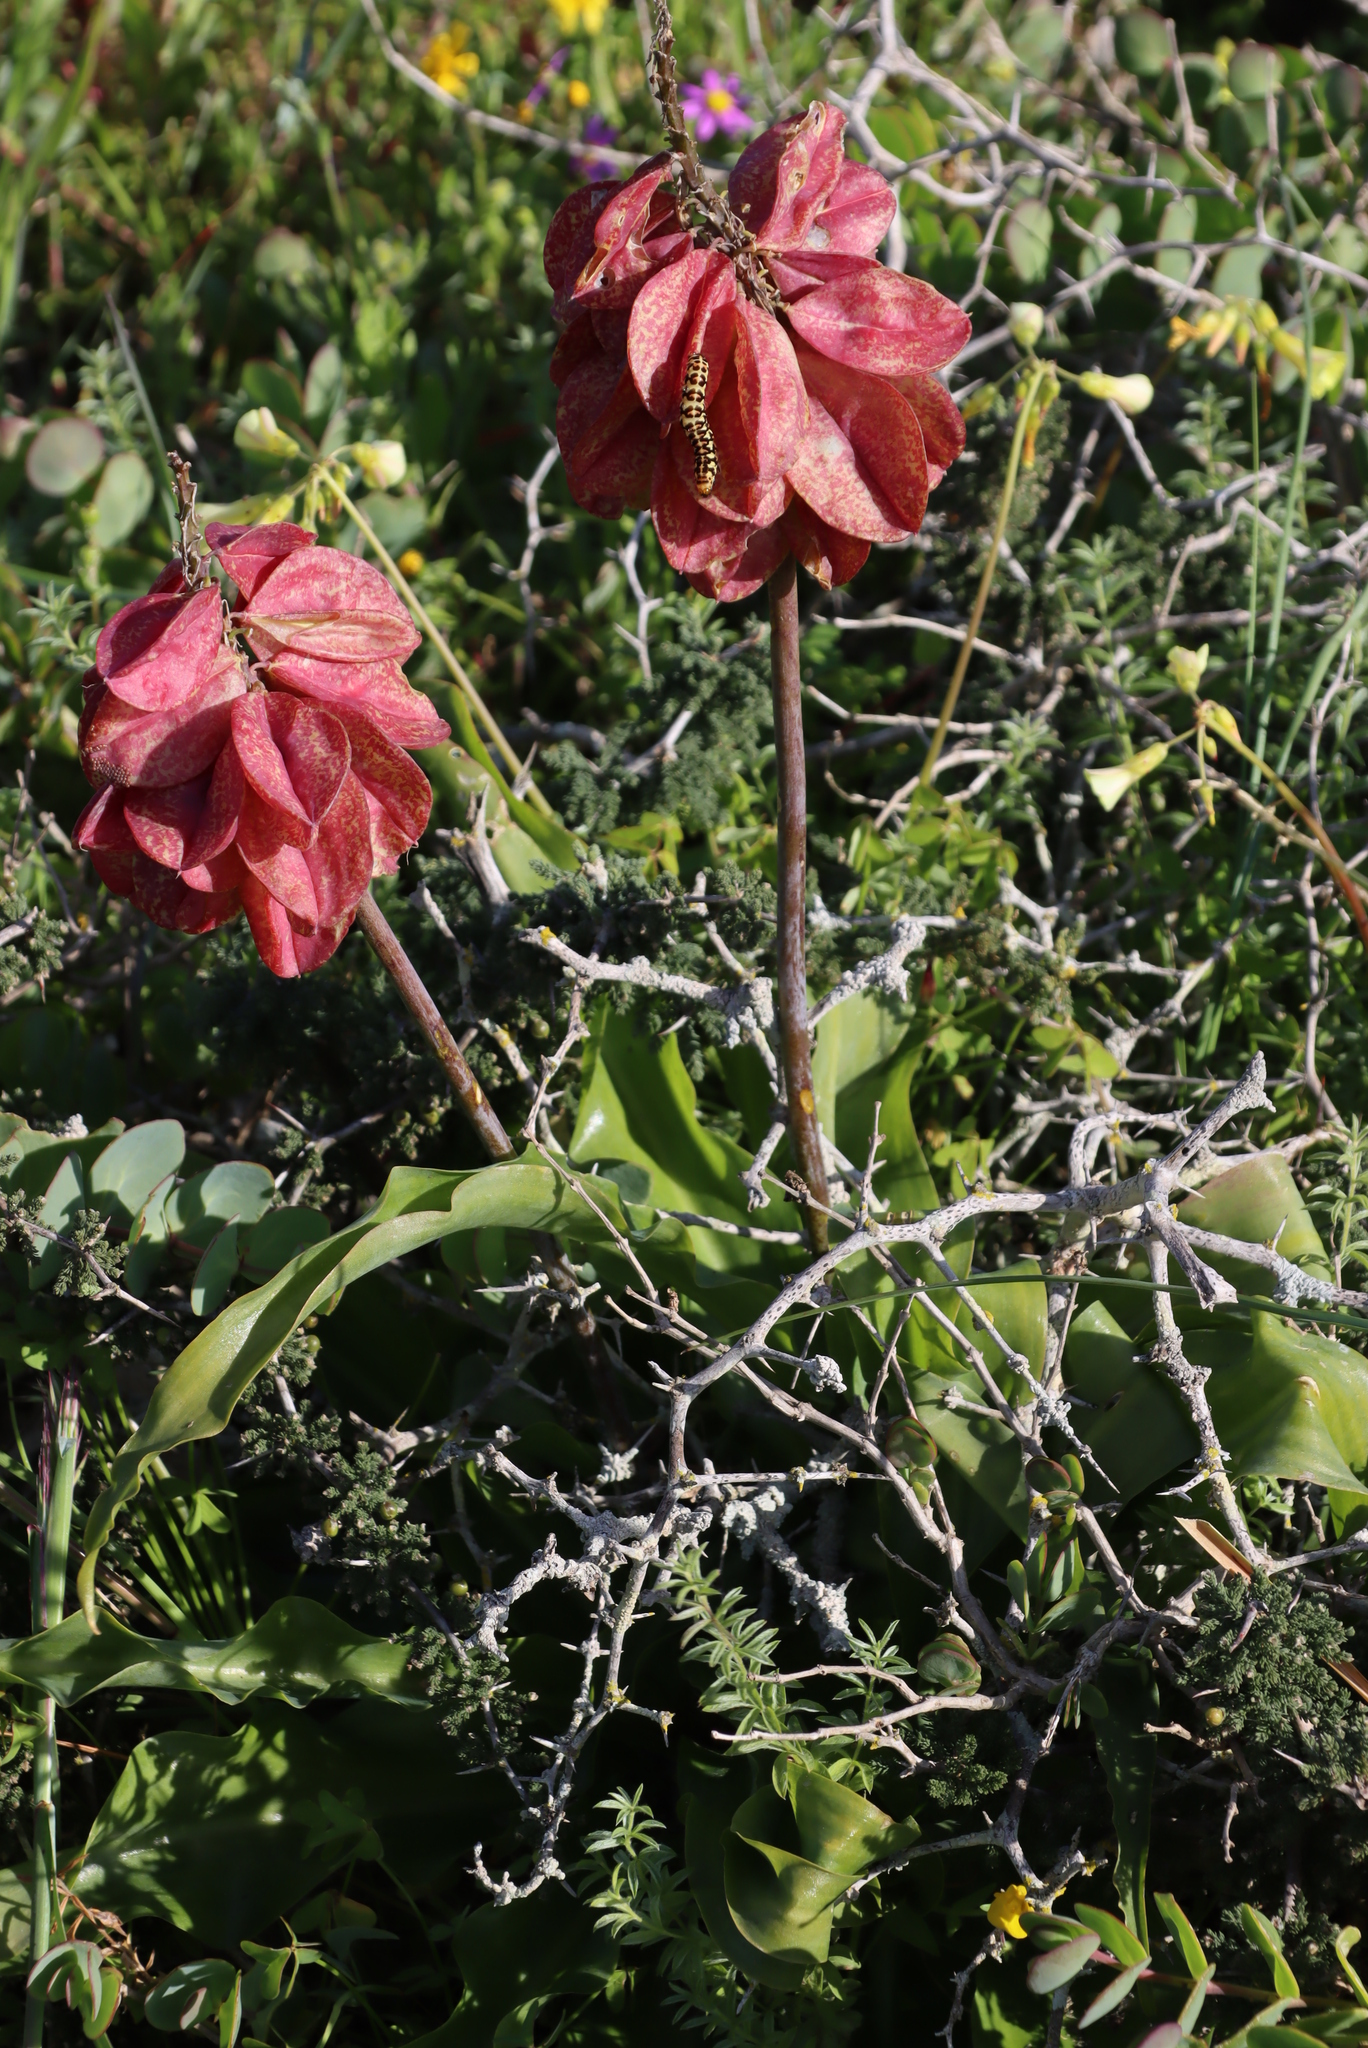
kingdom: Animalia
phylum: Arthropoda
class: Insecta
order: Lepidoptera
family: Noctuidae
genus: Diaphone
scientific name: Diaphone eumela
